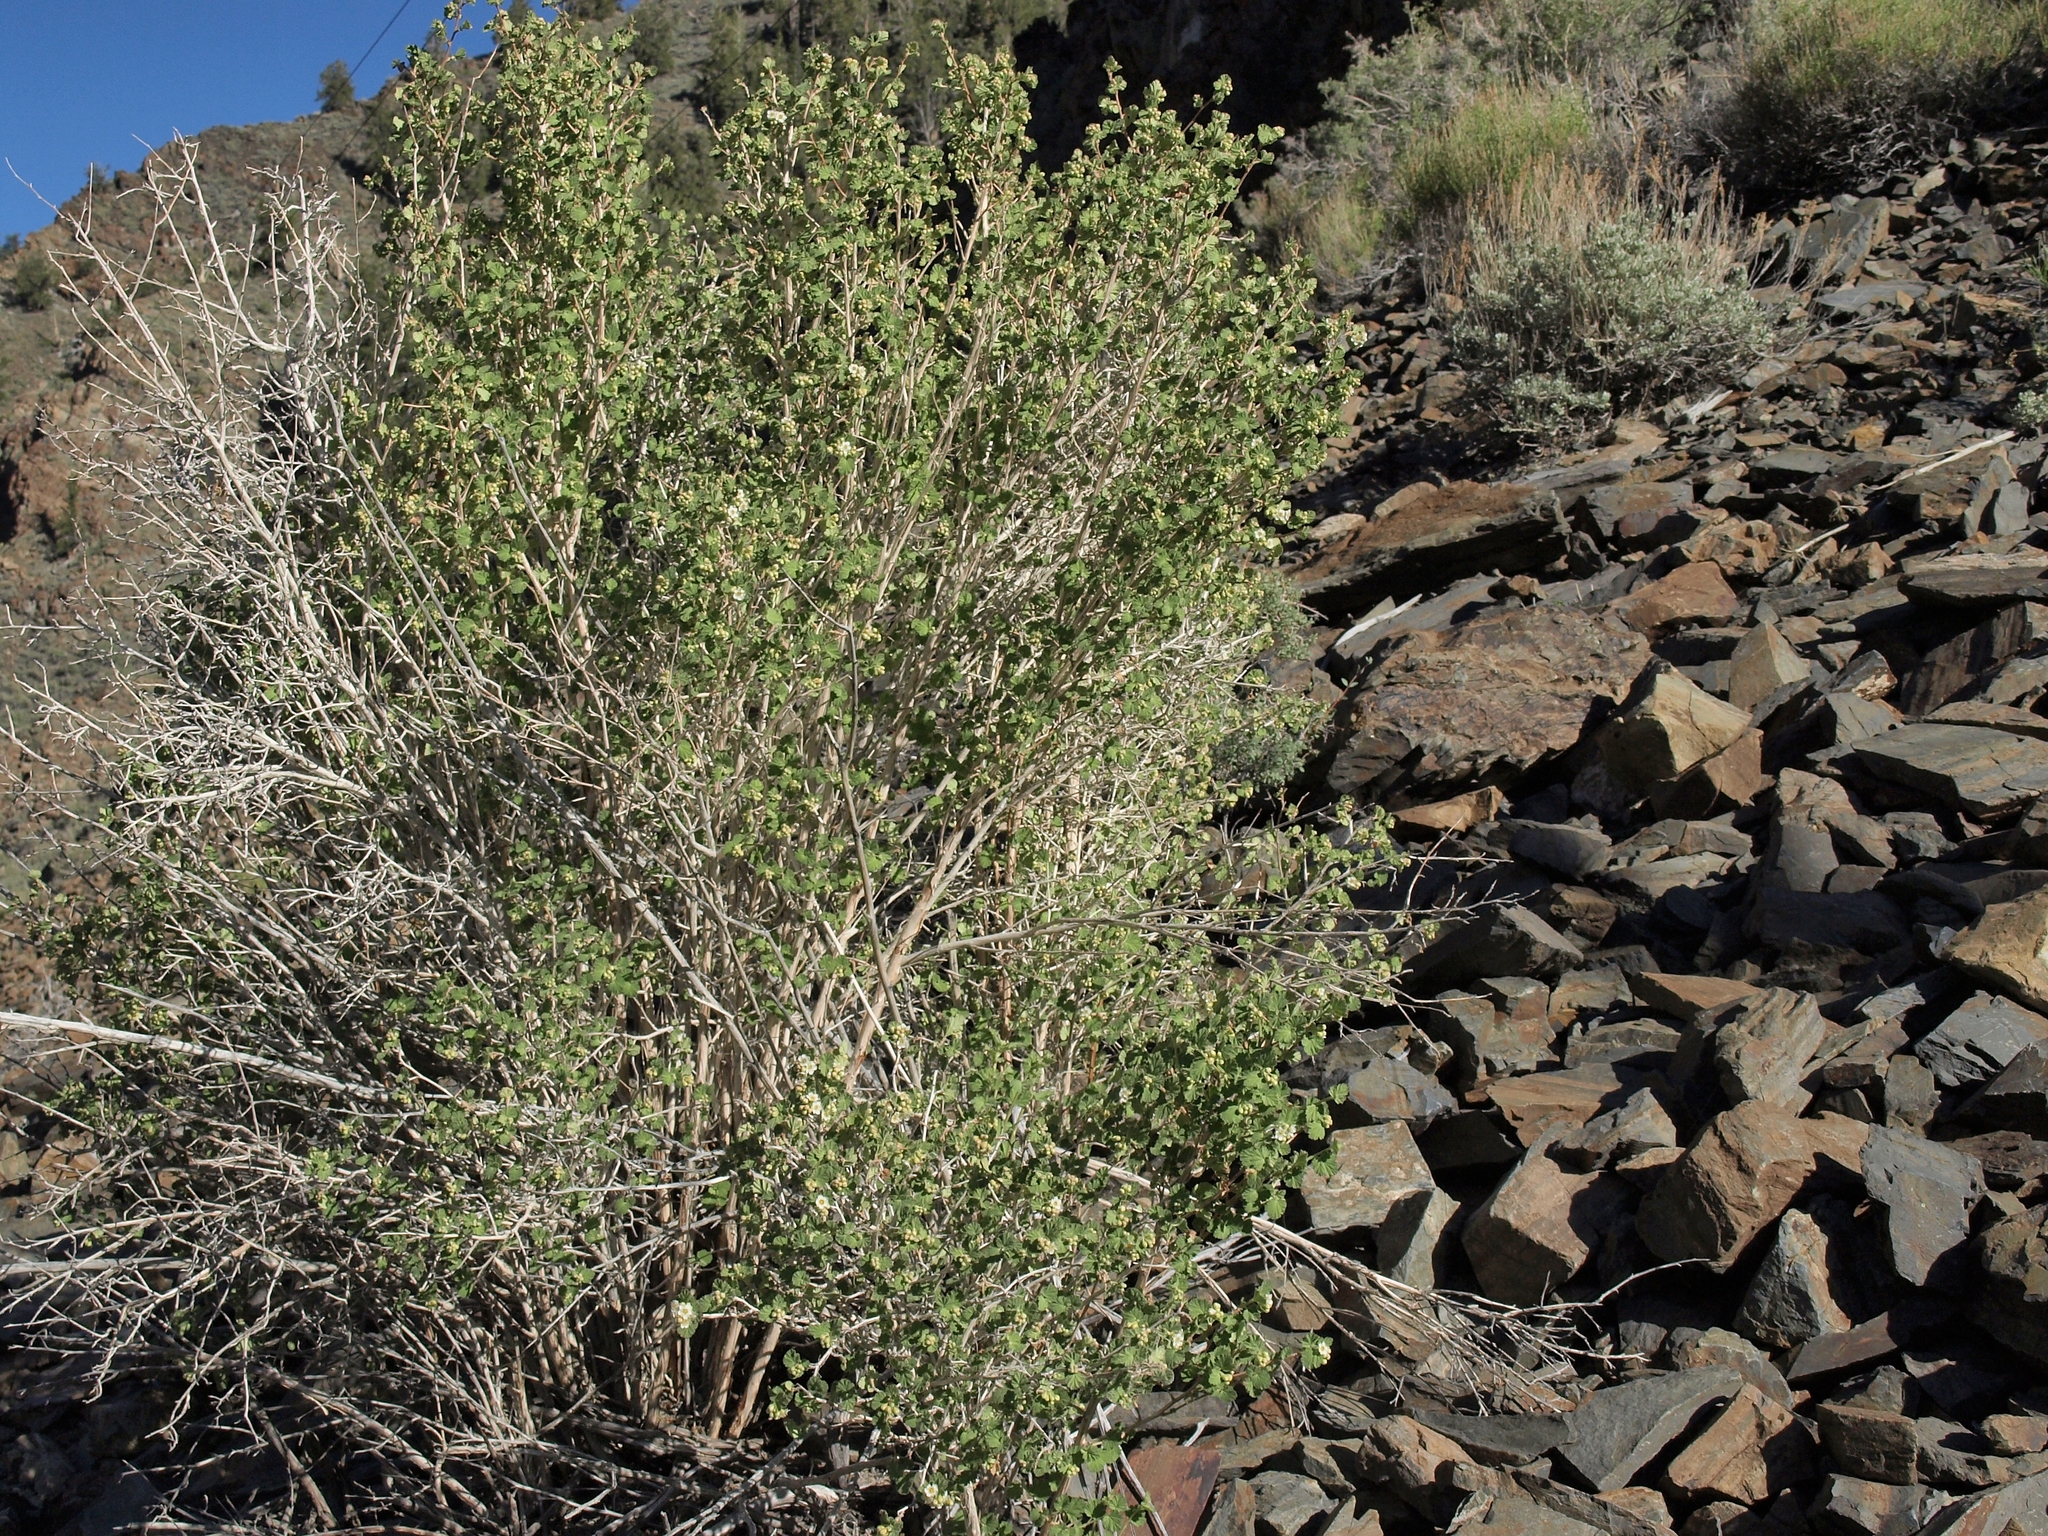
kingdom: Plantae
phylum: Tracheophyta
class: Magnoliopsida
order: Rosales
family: Rosaceae
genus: Physocarpus
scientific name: Physocarpus alternans
